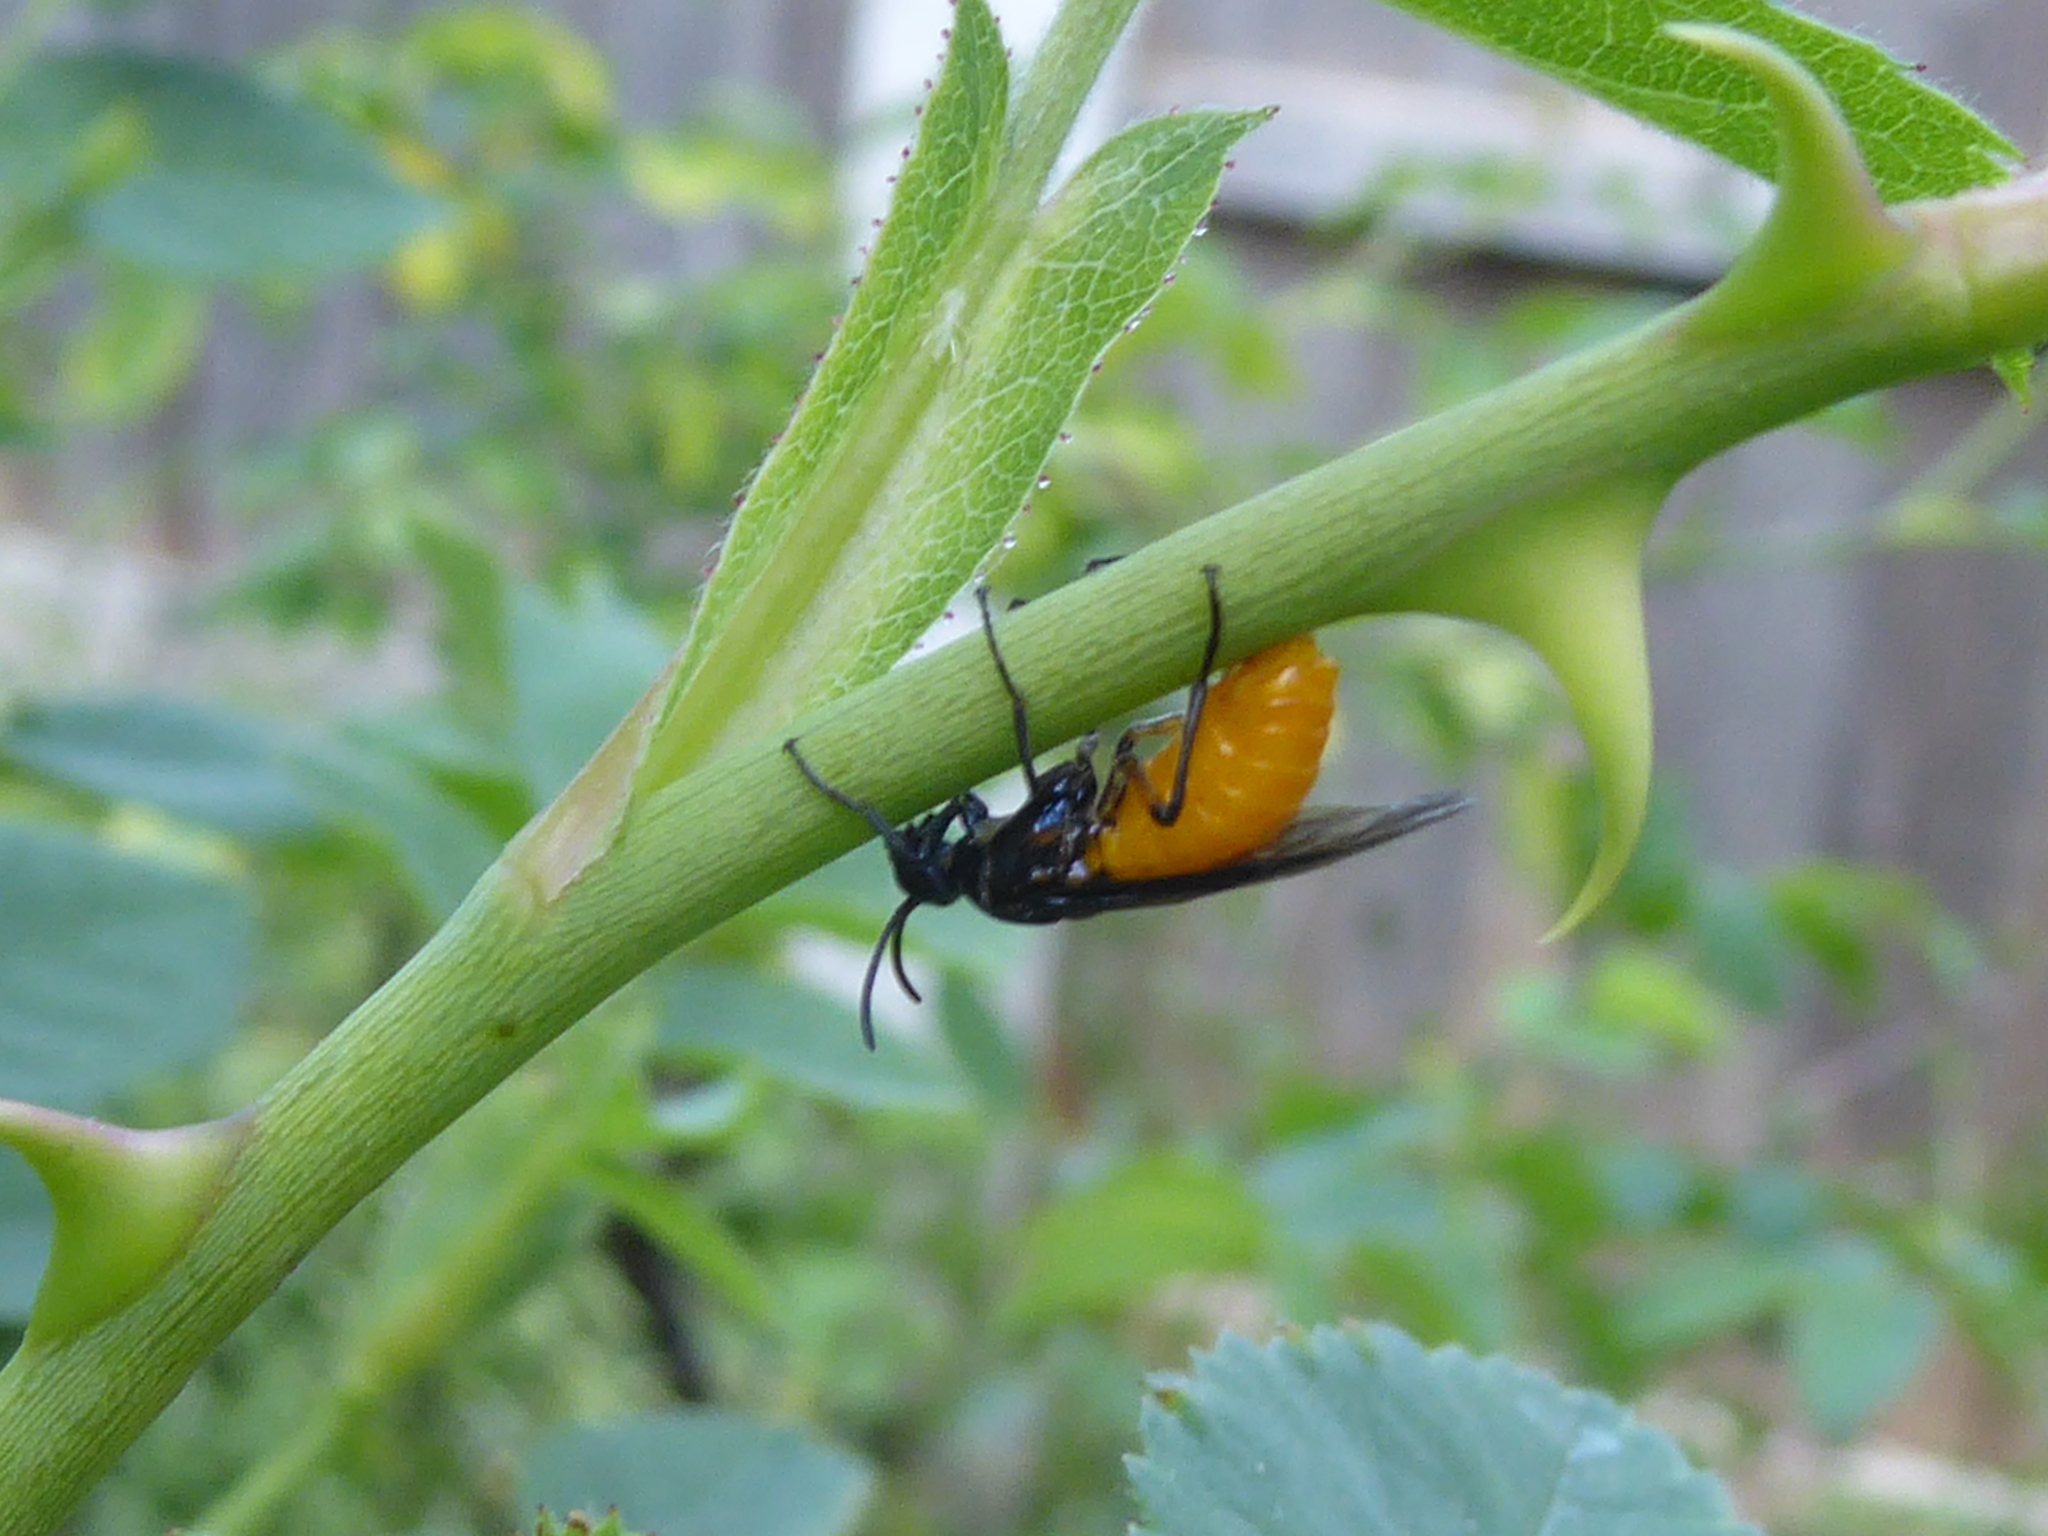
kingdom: Animalia
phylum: Arthropoda
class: Insecta
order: Hymenoptera
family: Argidae
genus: Arge
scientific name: Arge pagana
